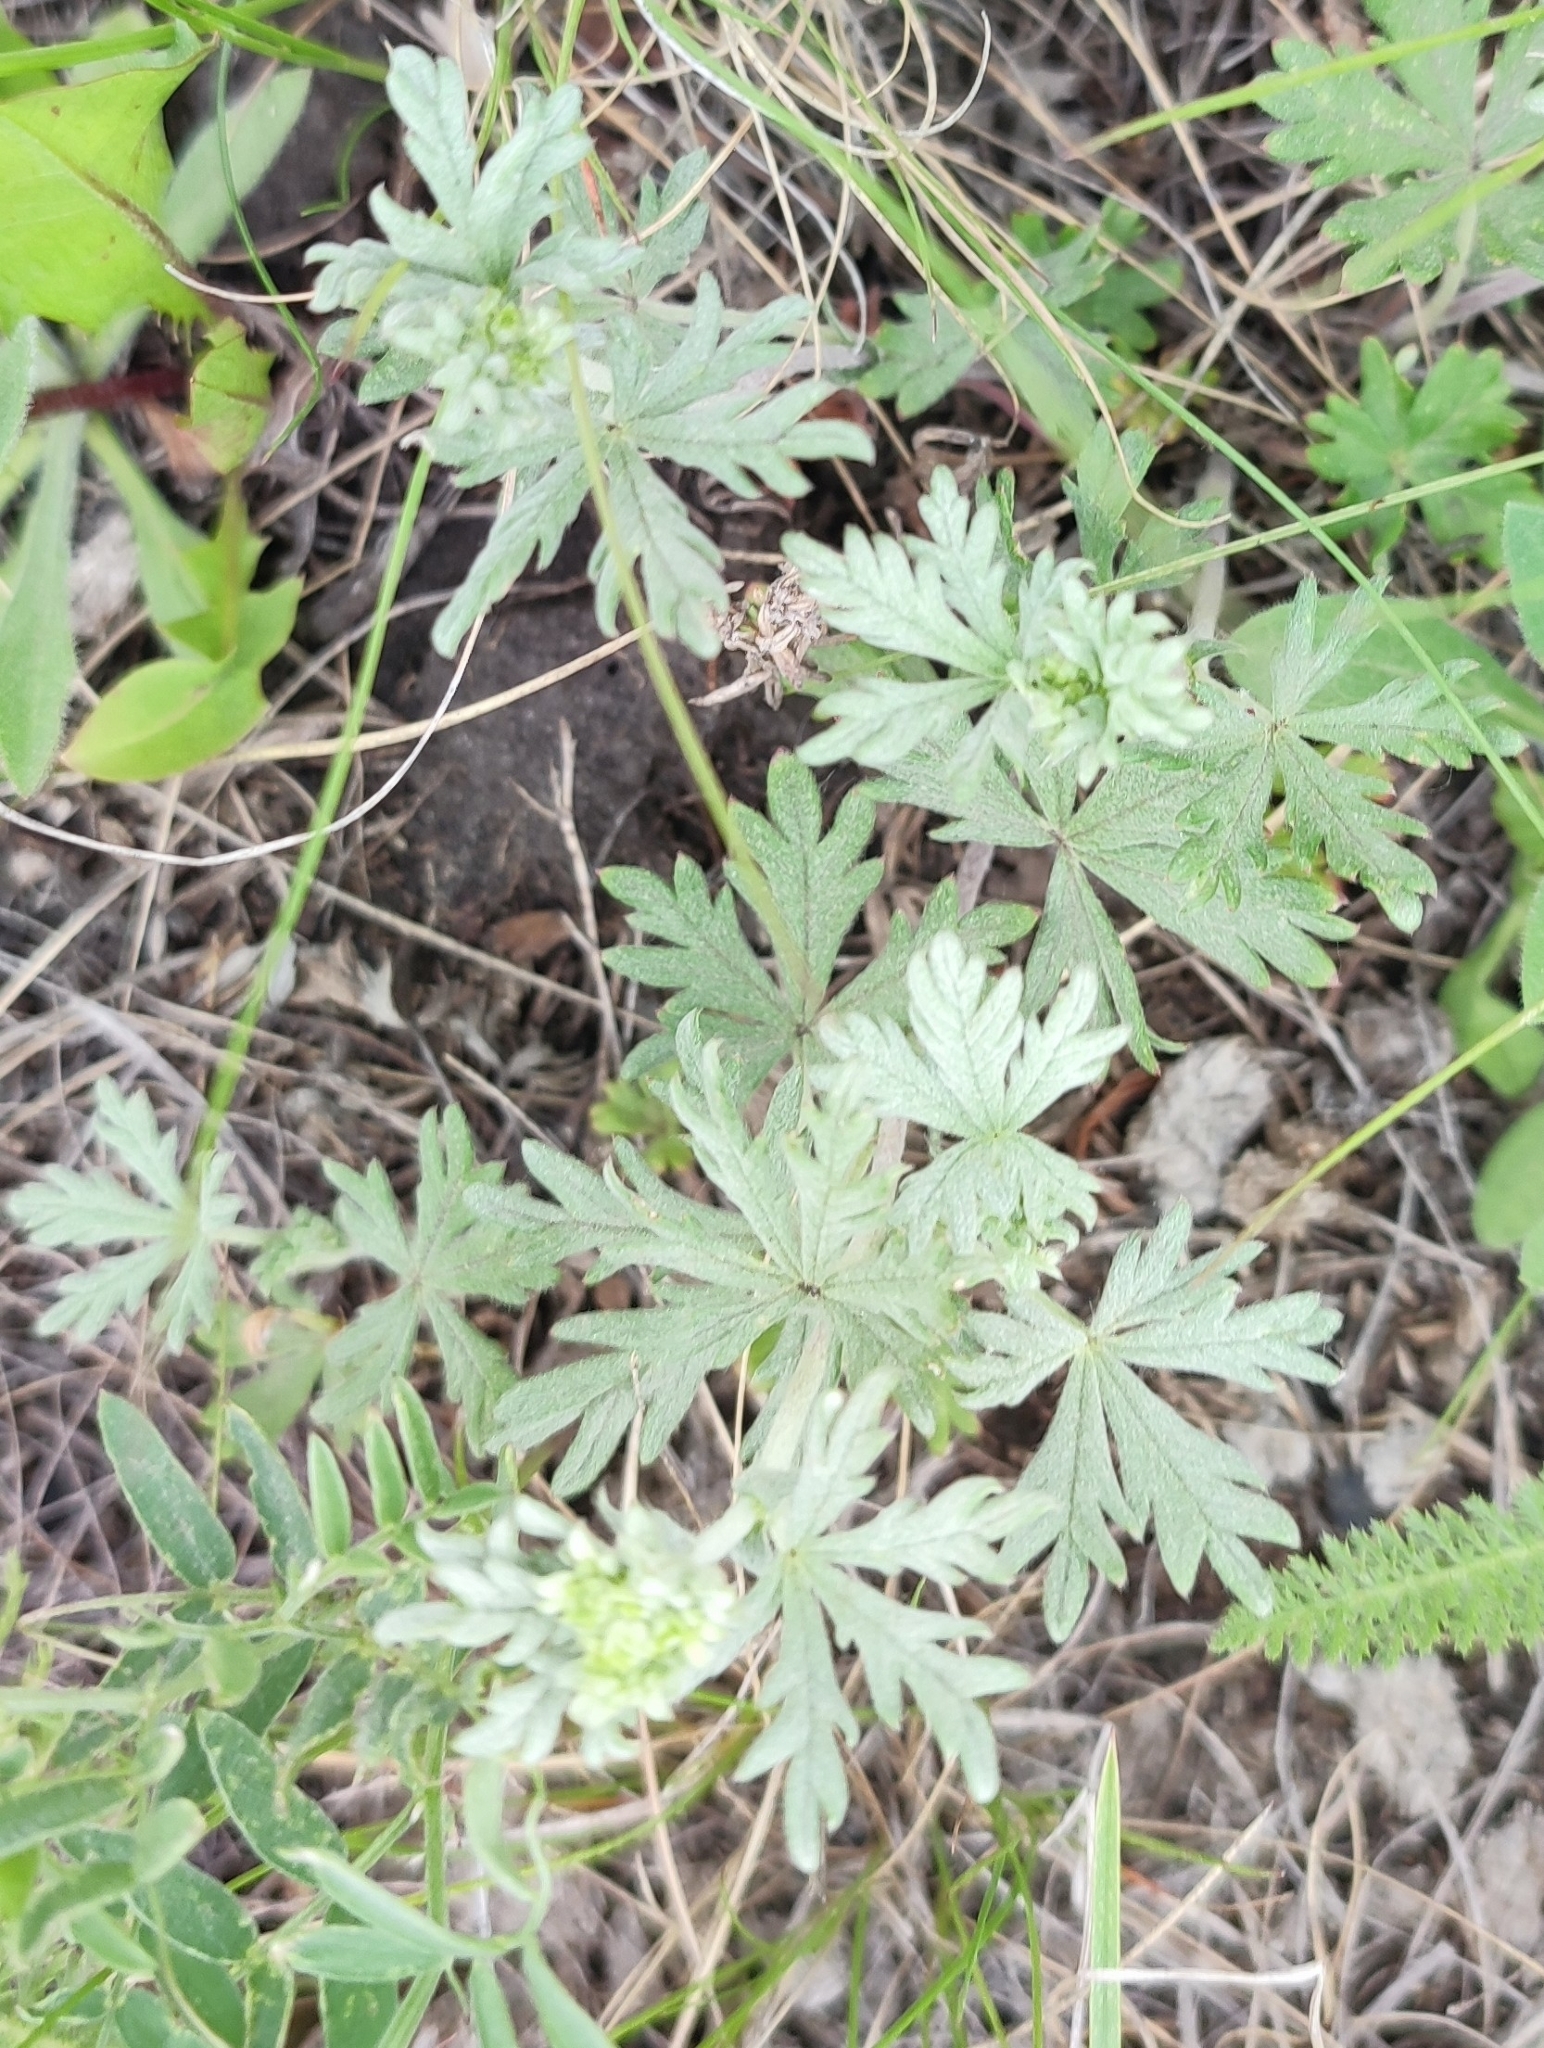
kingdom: Plantae
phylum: Tracheophyta
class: Magnoliopsida
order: Rosales
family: Rosaceae
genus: Potentilla
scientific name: Potentilla argentea
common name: Hoary cinquefoil
